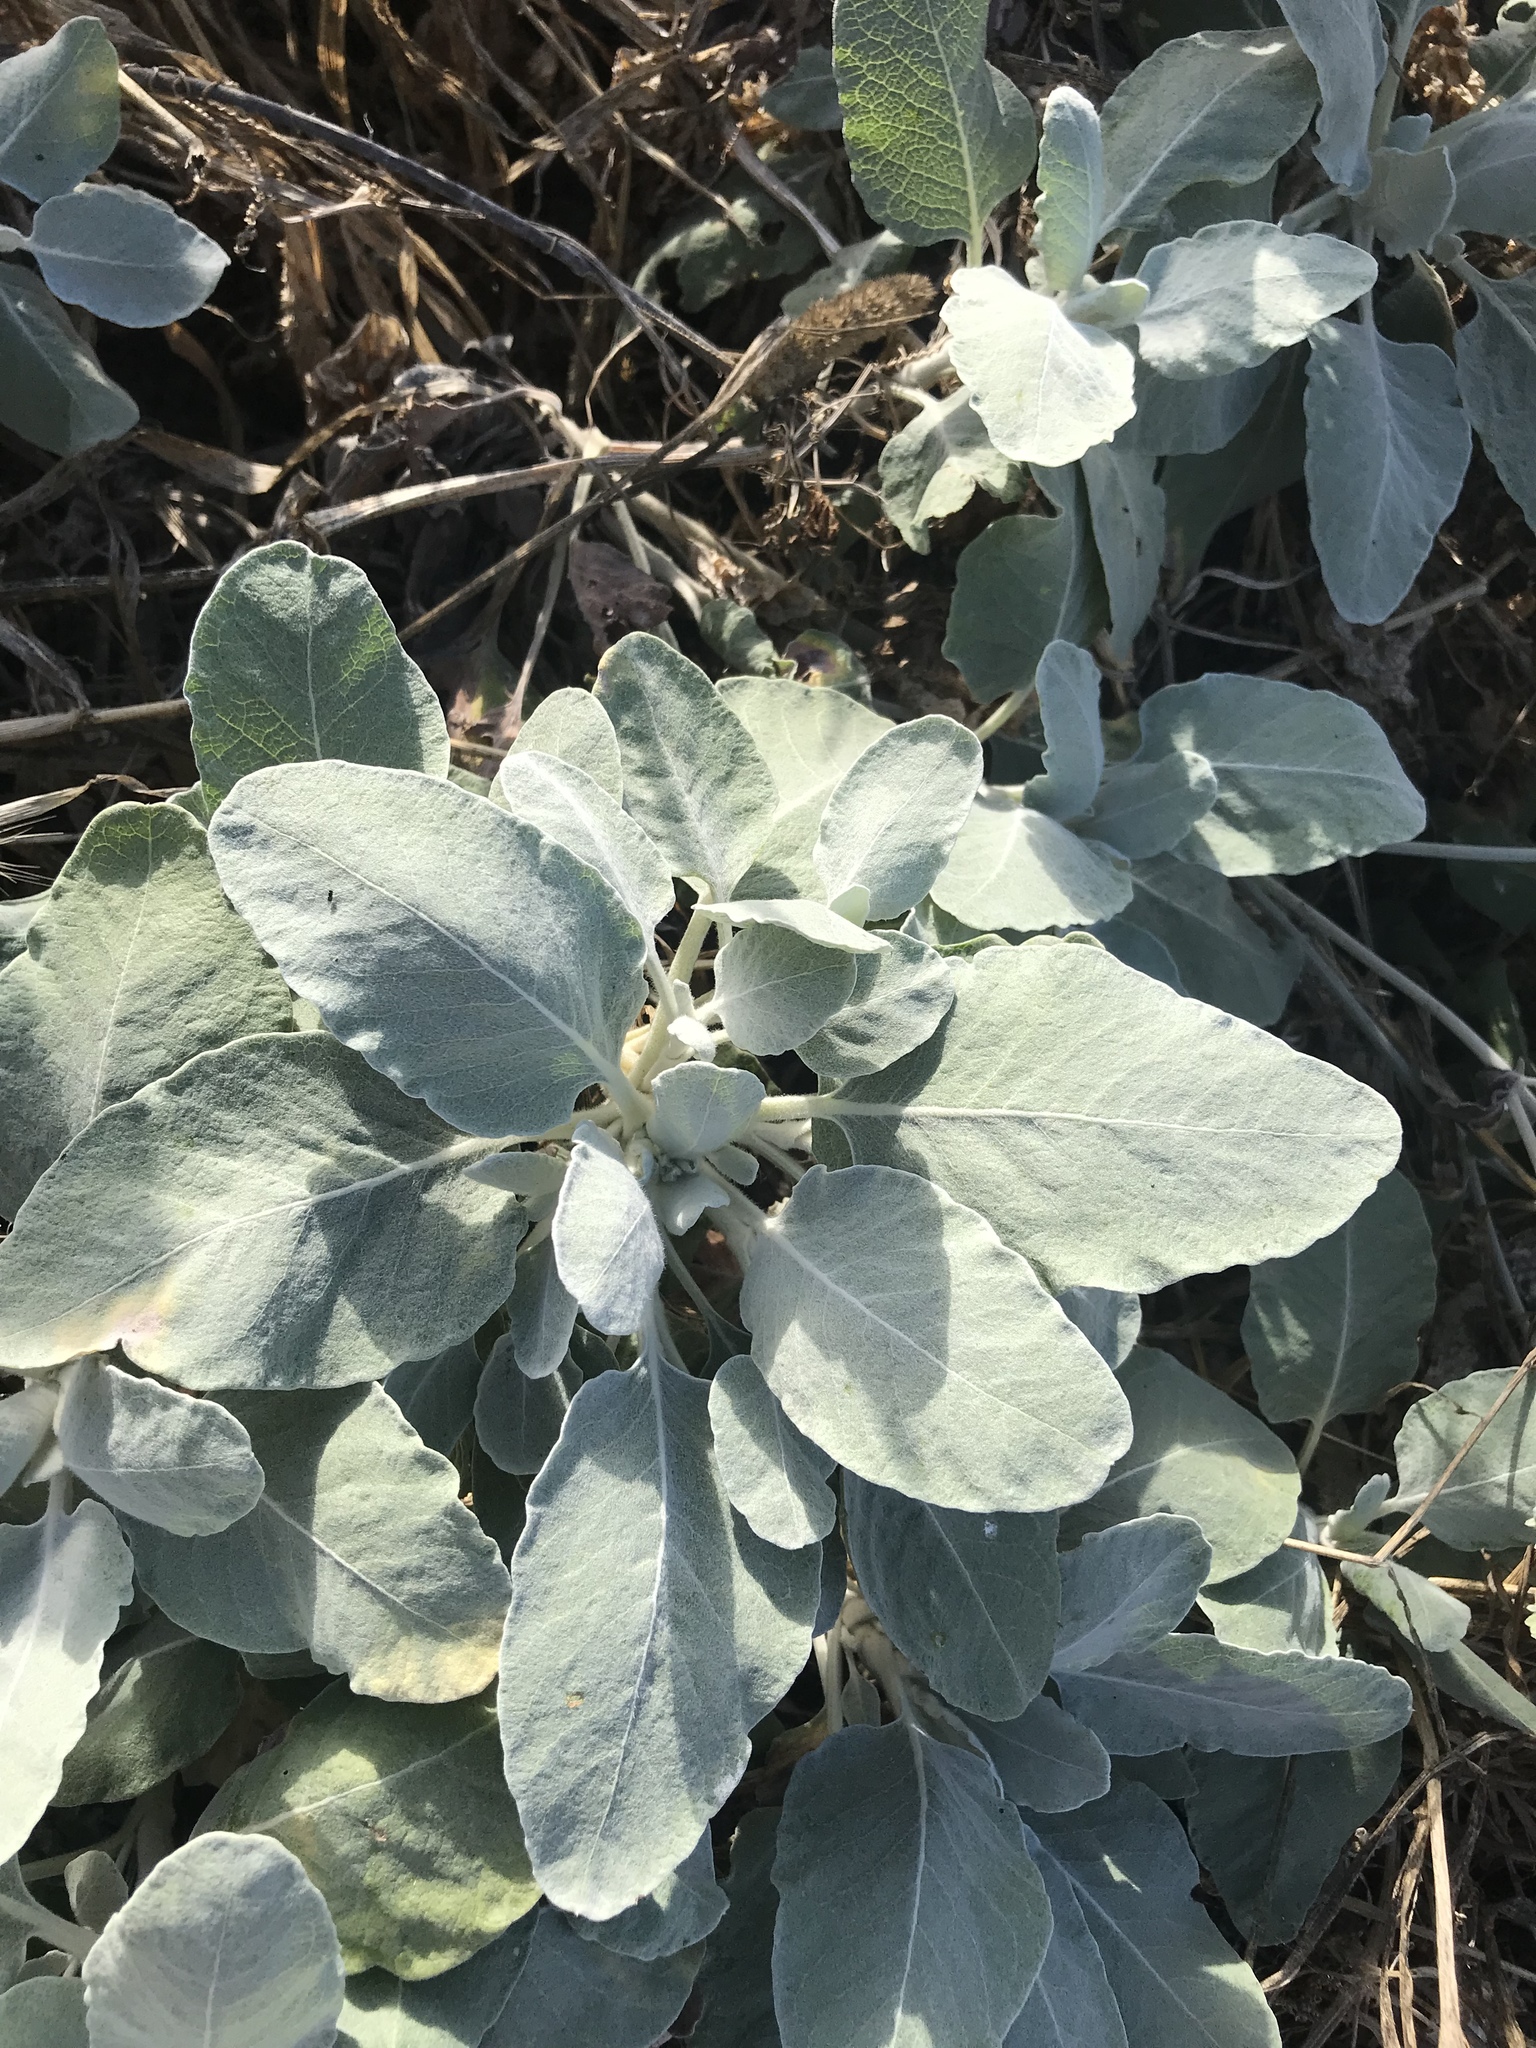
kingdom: Plantae
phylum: Tracheophyta
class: Magnoliopsida
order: Caryophyllales
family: Polygonaceae
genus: Eriogonum
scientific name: Eriogonum giganteum
